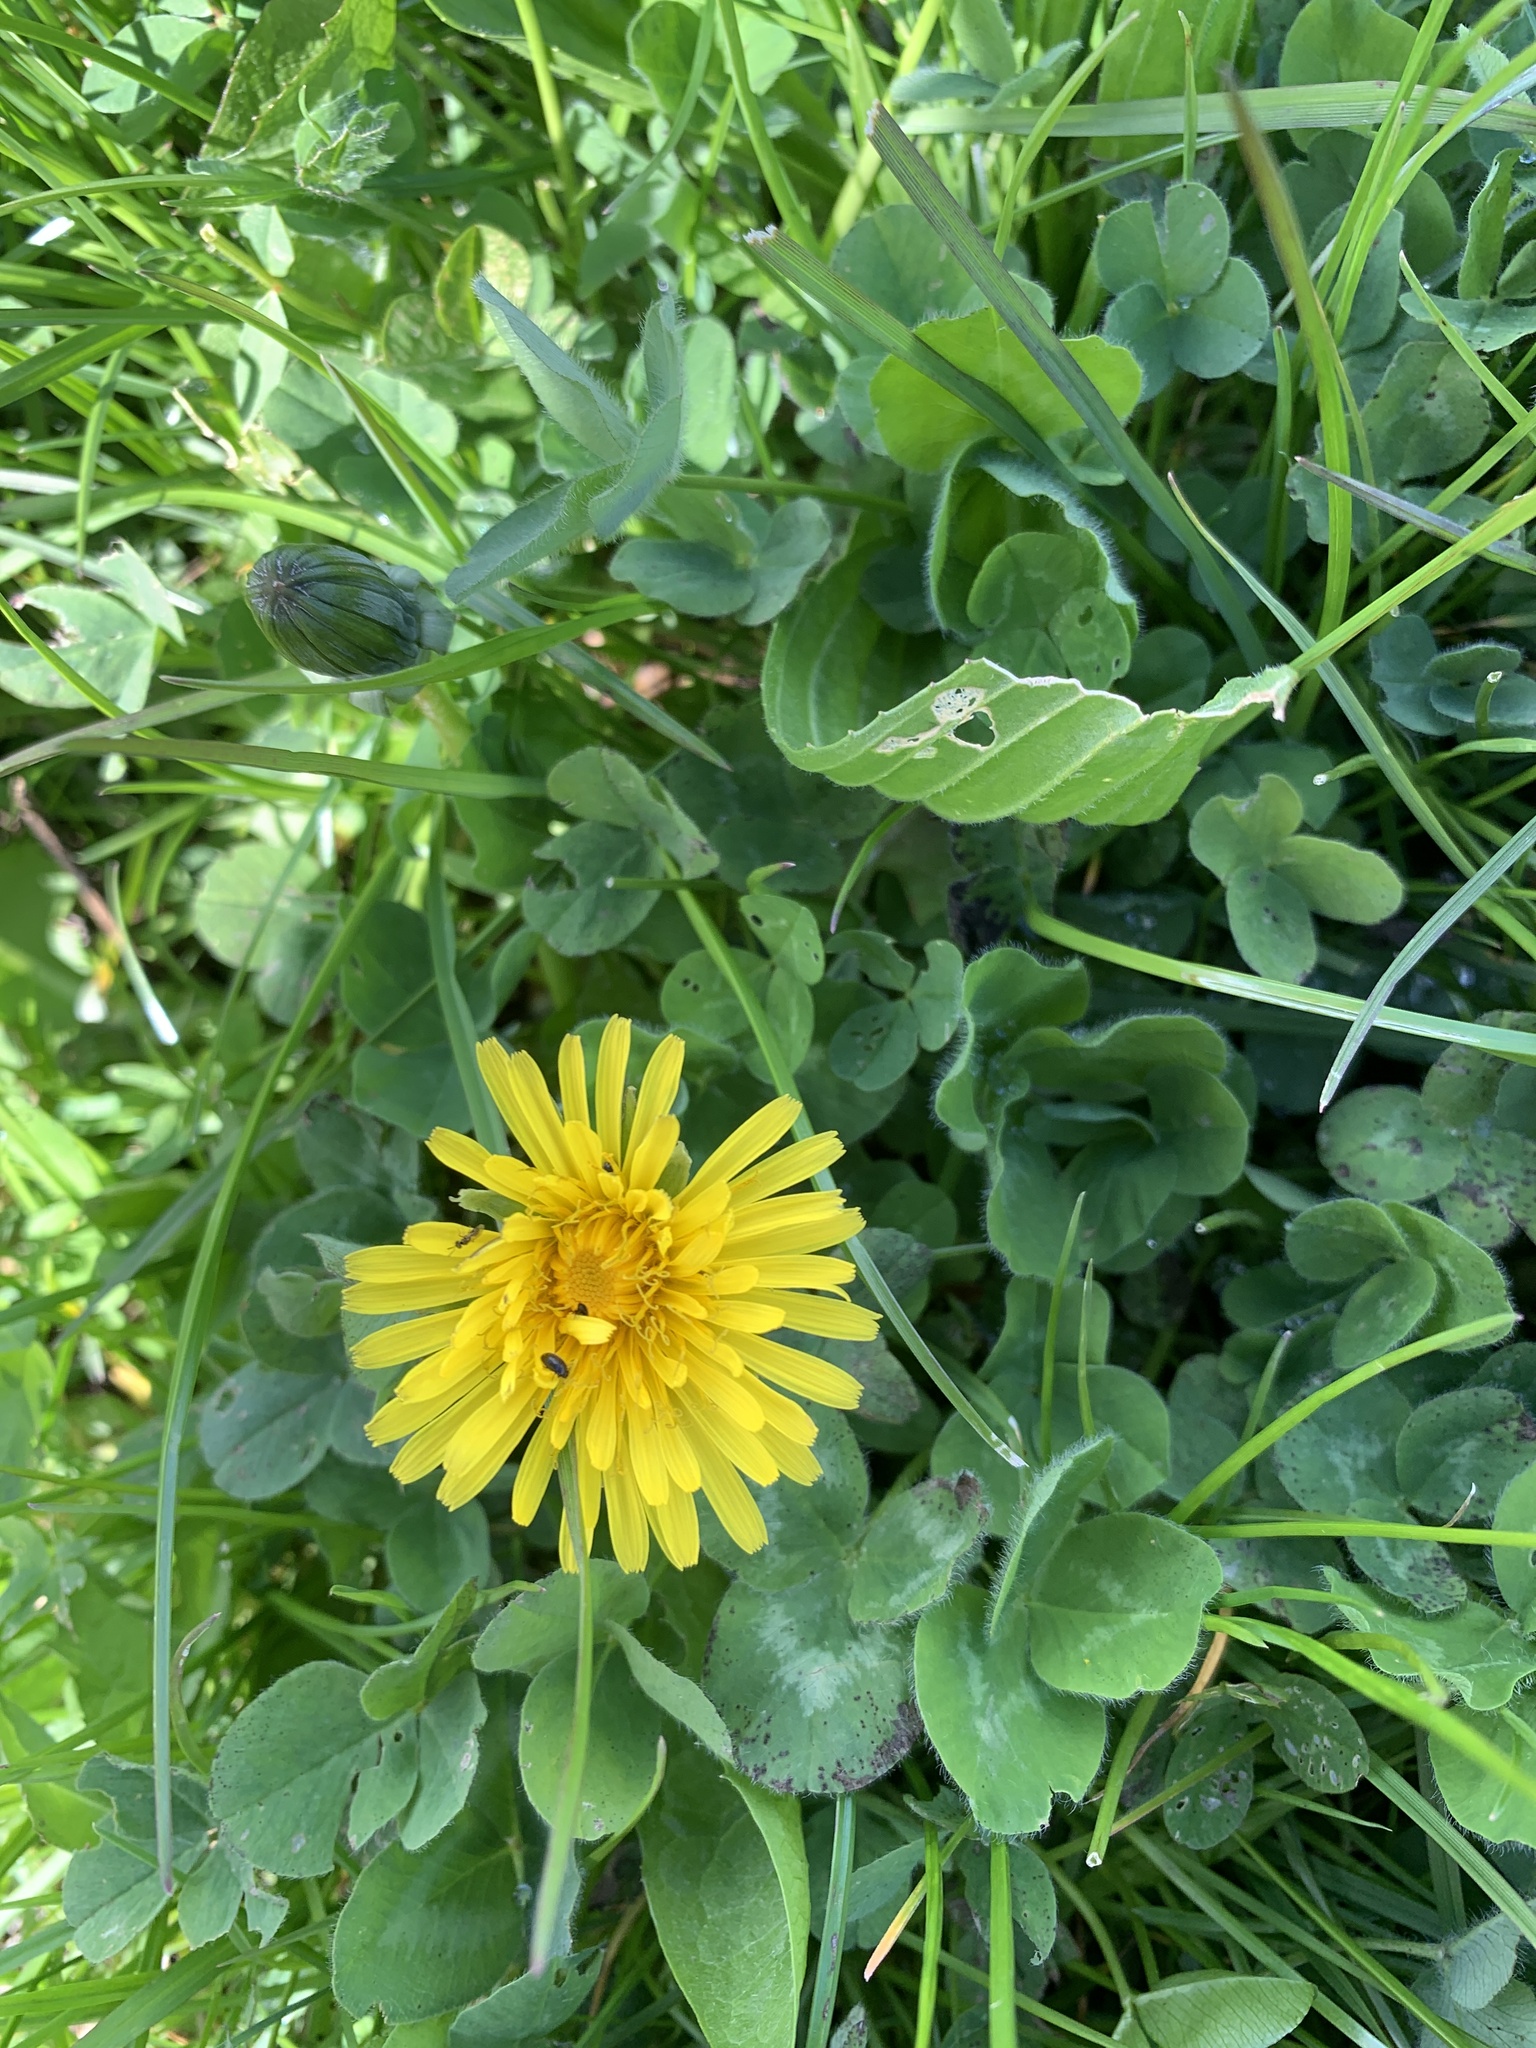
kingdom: Plantae
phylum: Tracheophyta
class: Magnoliopsida
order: Asterales
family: Asteraceae
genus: Taraxacum
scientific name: Taraxacum officinale
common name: Common dandelion
